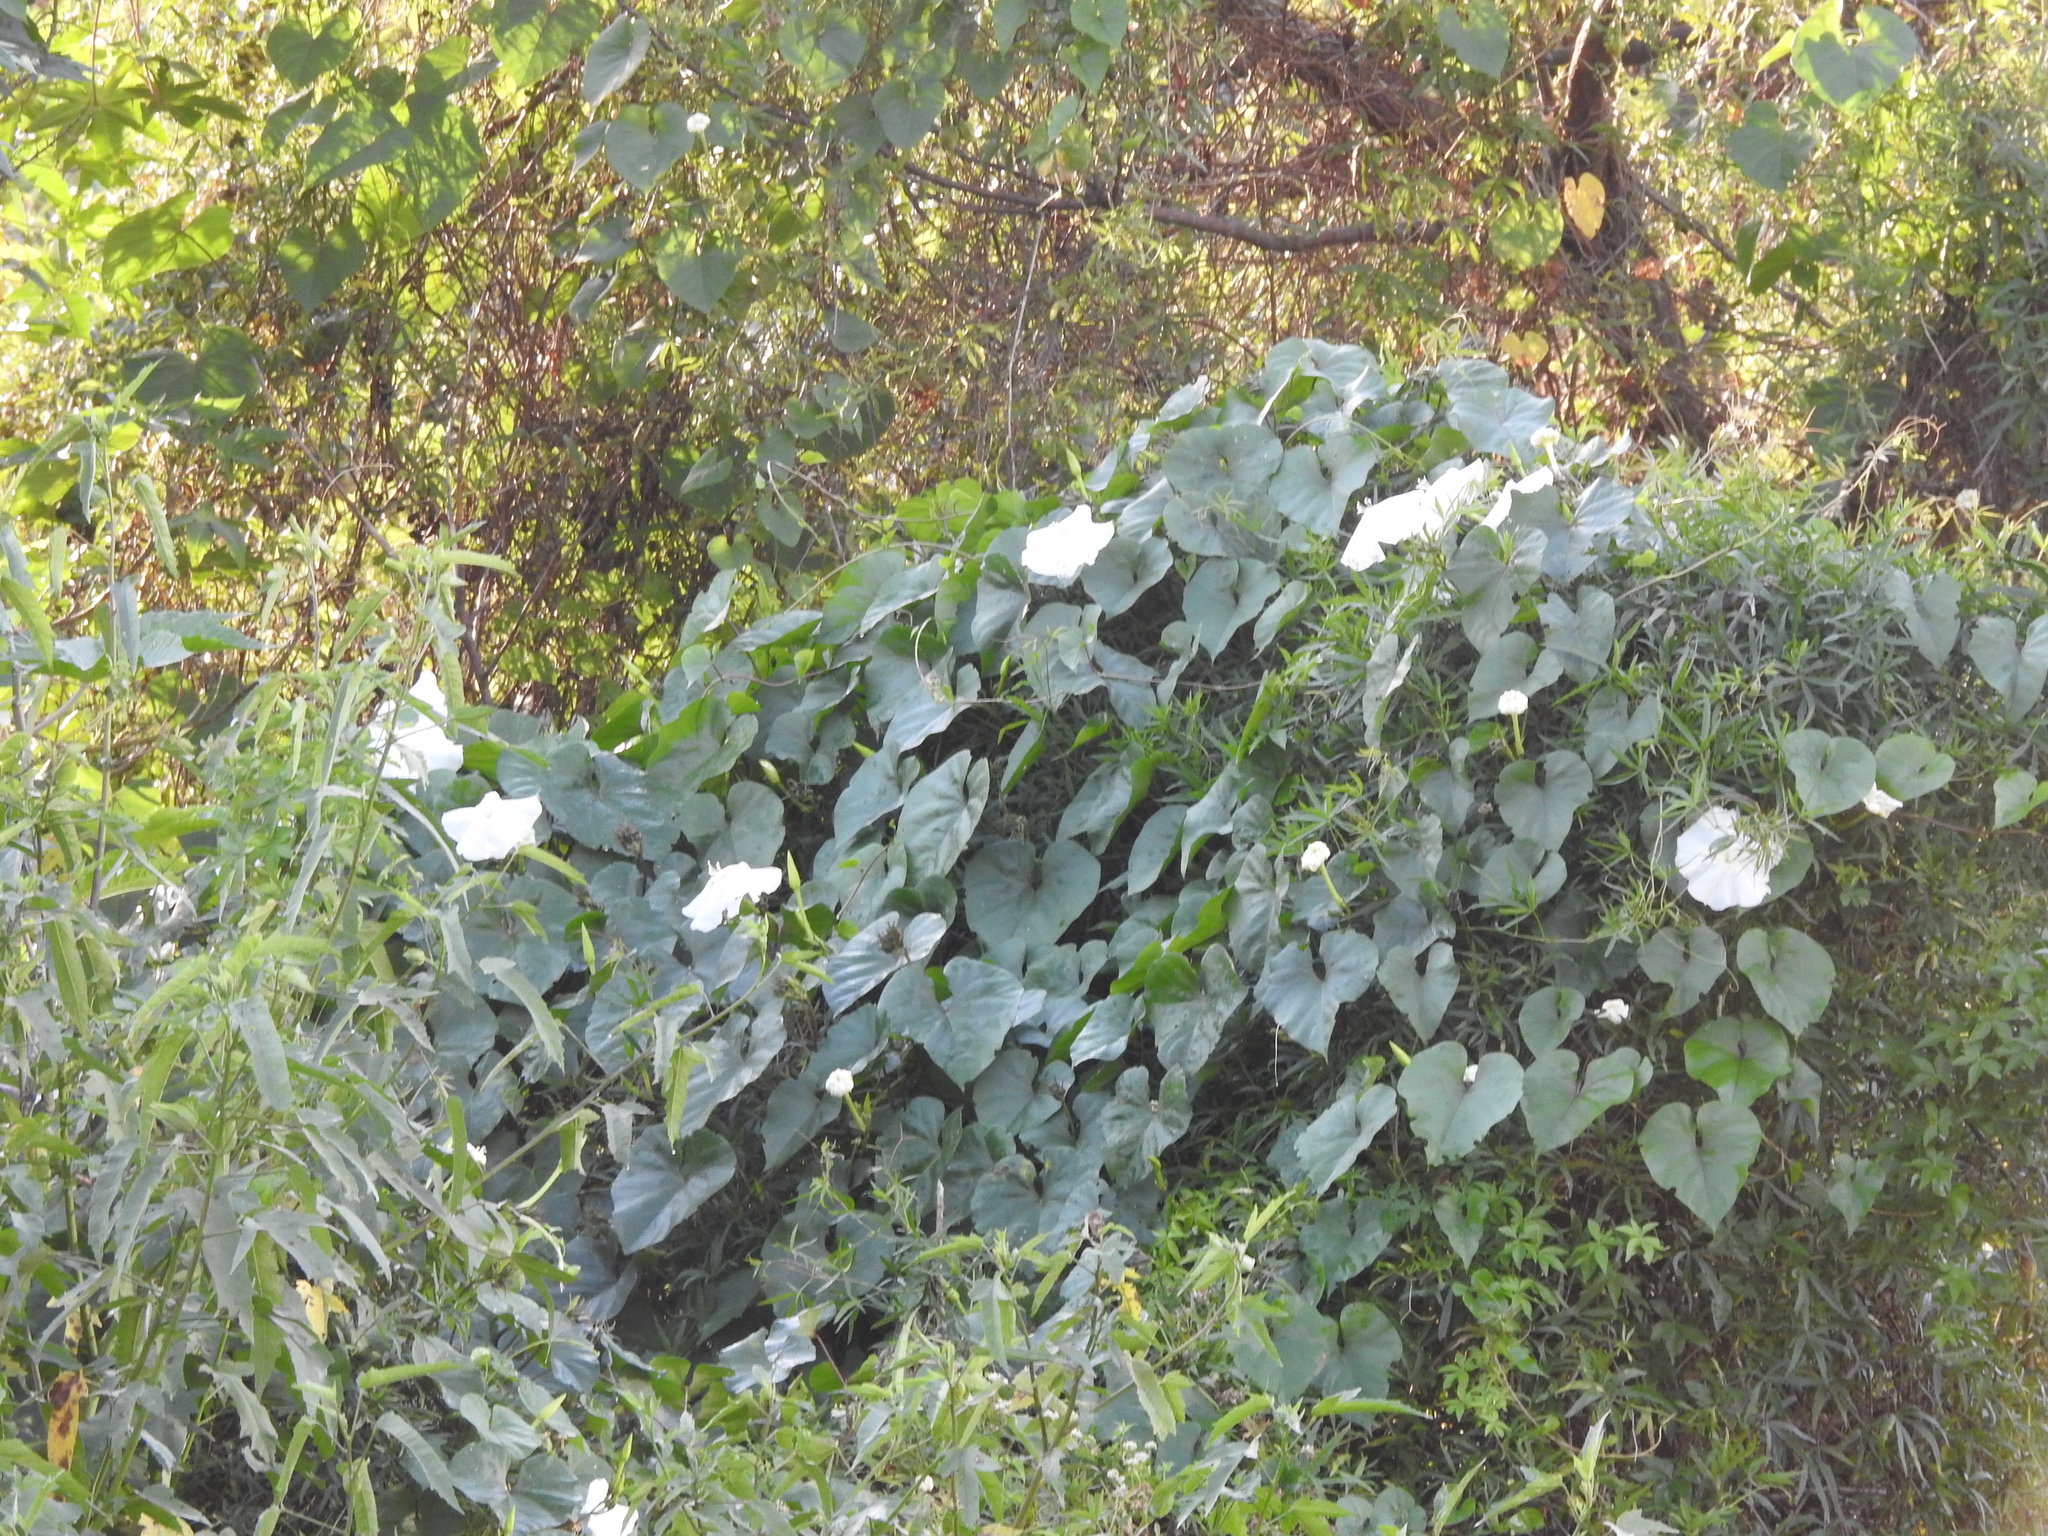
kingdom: Plantae
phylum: Tracheophyta
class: Magnoliopsida
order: Solanales
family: Convolvulaceae
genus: Ipomoea
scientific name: Ipomoea alba
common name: Moonflower
